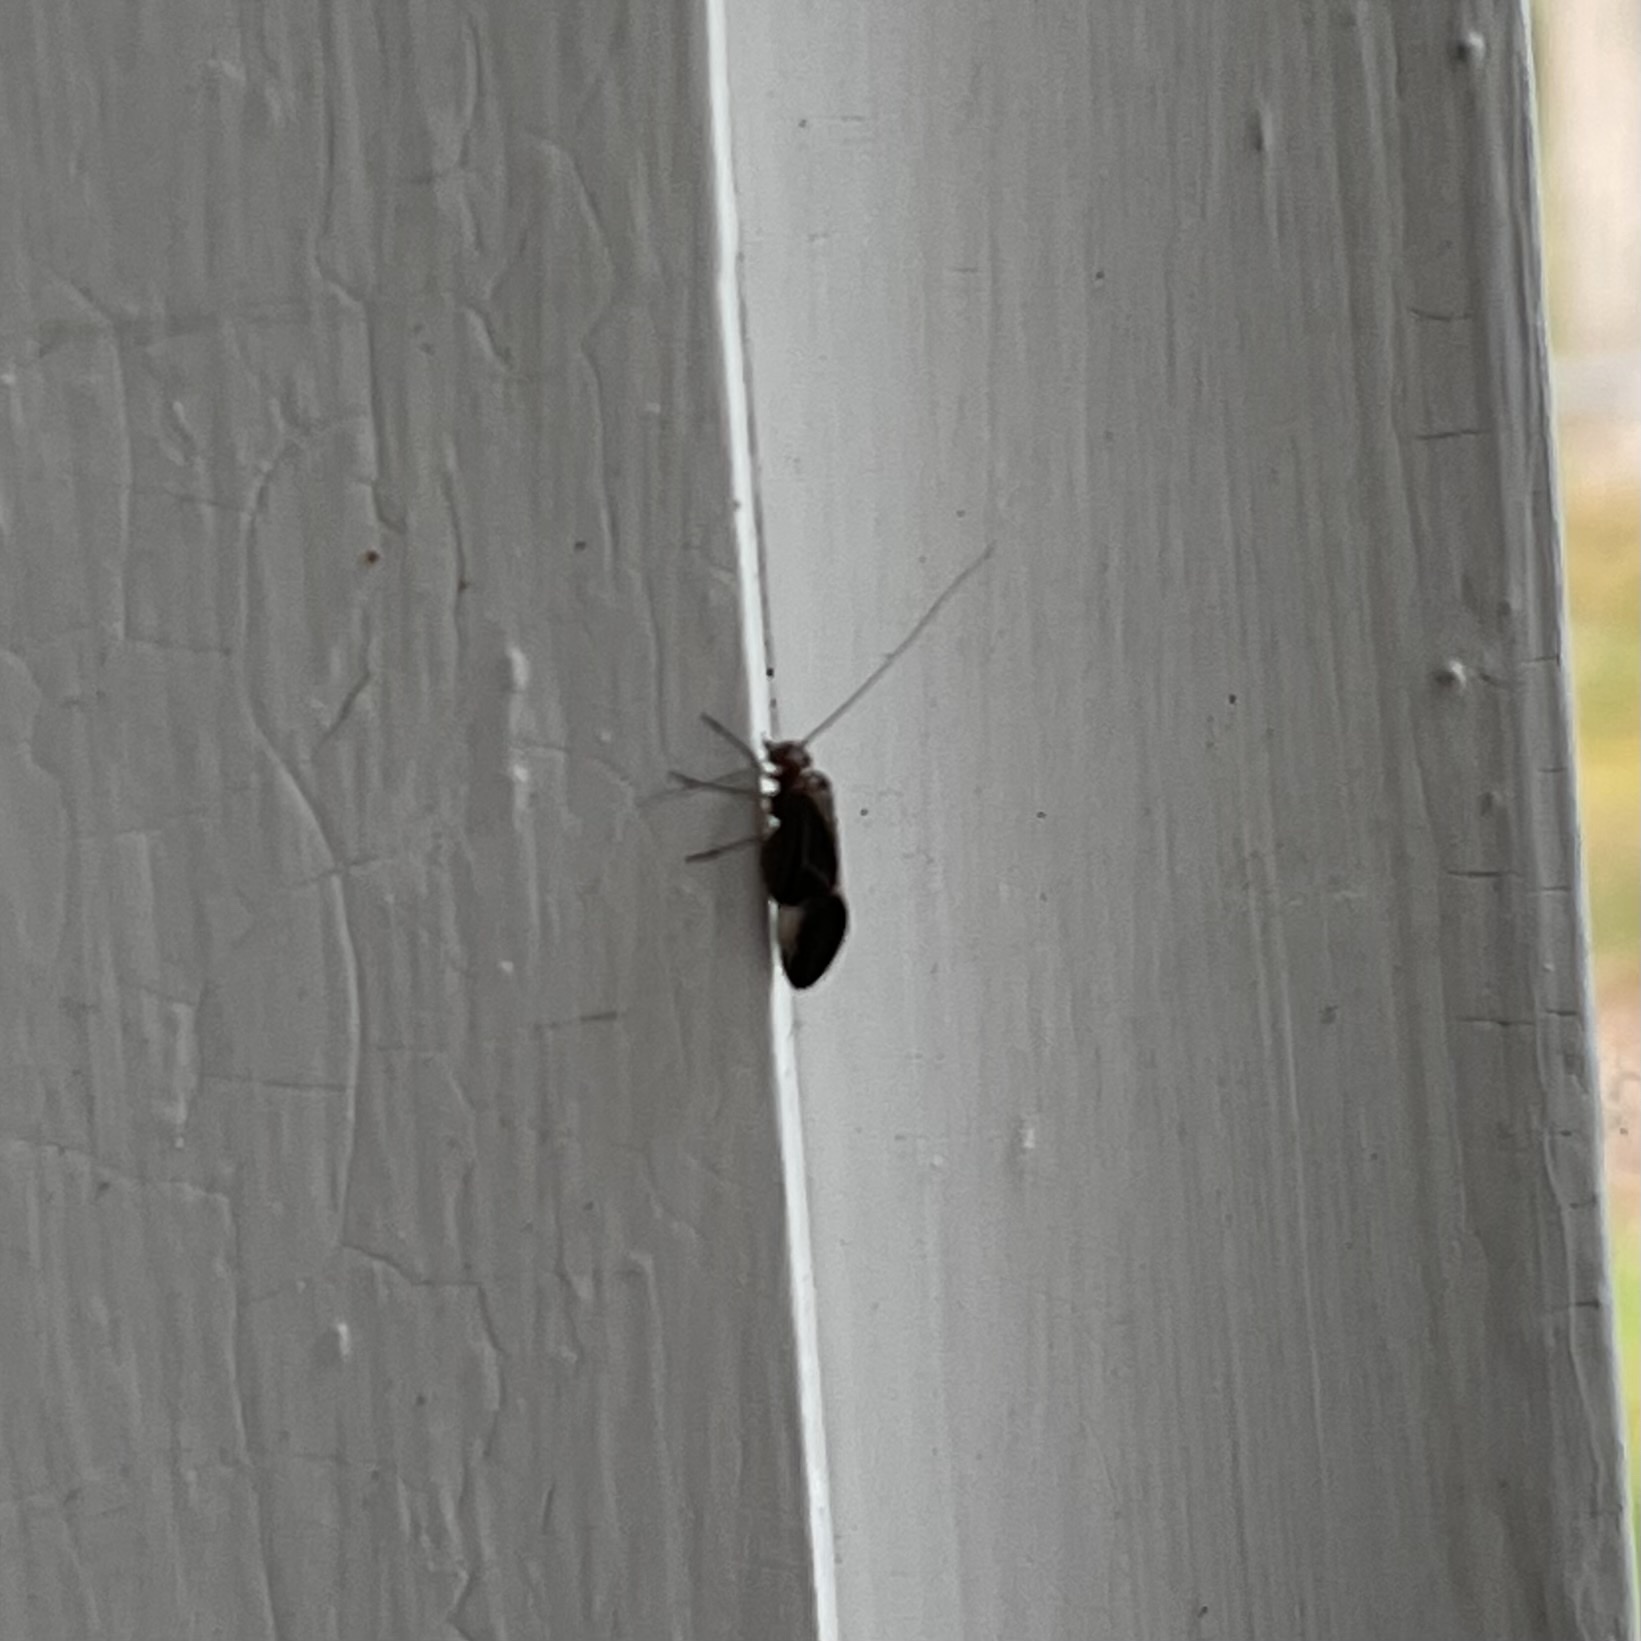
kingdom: Animalia
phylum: Arthropoda
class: Insecta
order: Psocodea
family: Psocidae
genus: Cerastipsocus
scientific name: Cerastipsocus venosus
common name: Tree cattle
